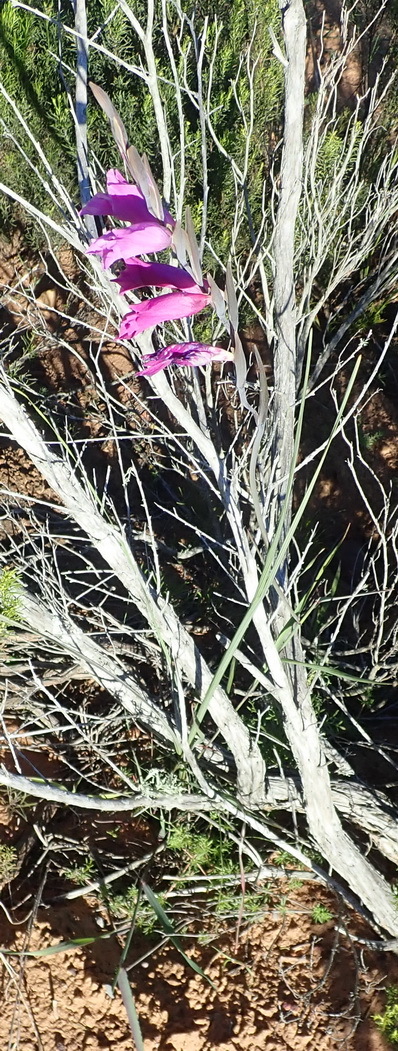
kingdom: Plantae
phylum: Tracheophyta
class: Liliopsida
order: Asparagales
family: Iridaceae
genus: Gladiolus
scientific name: Gladiolus carinatus
